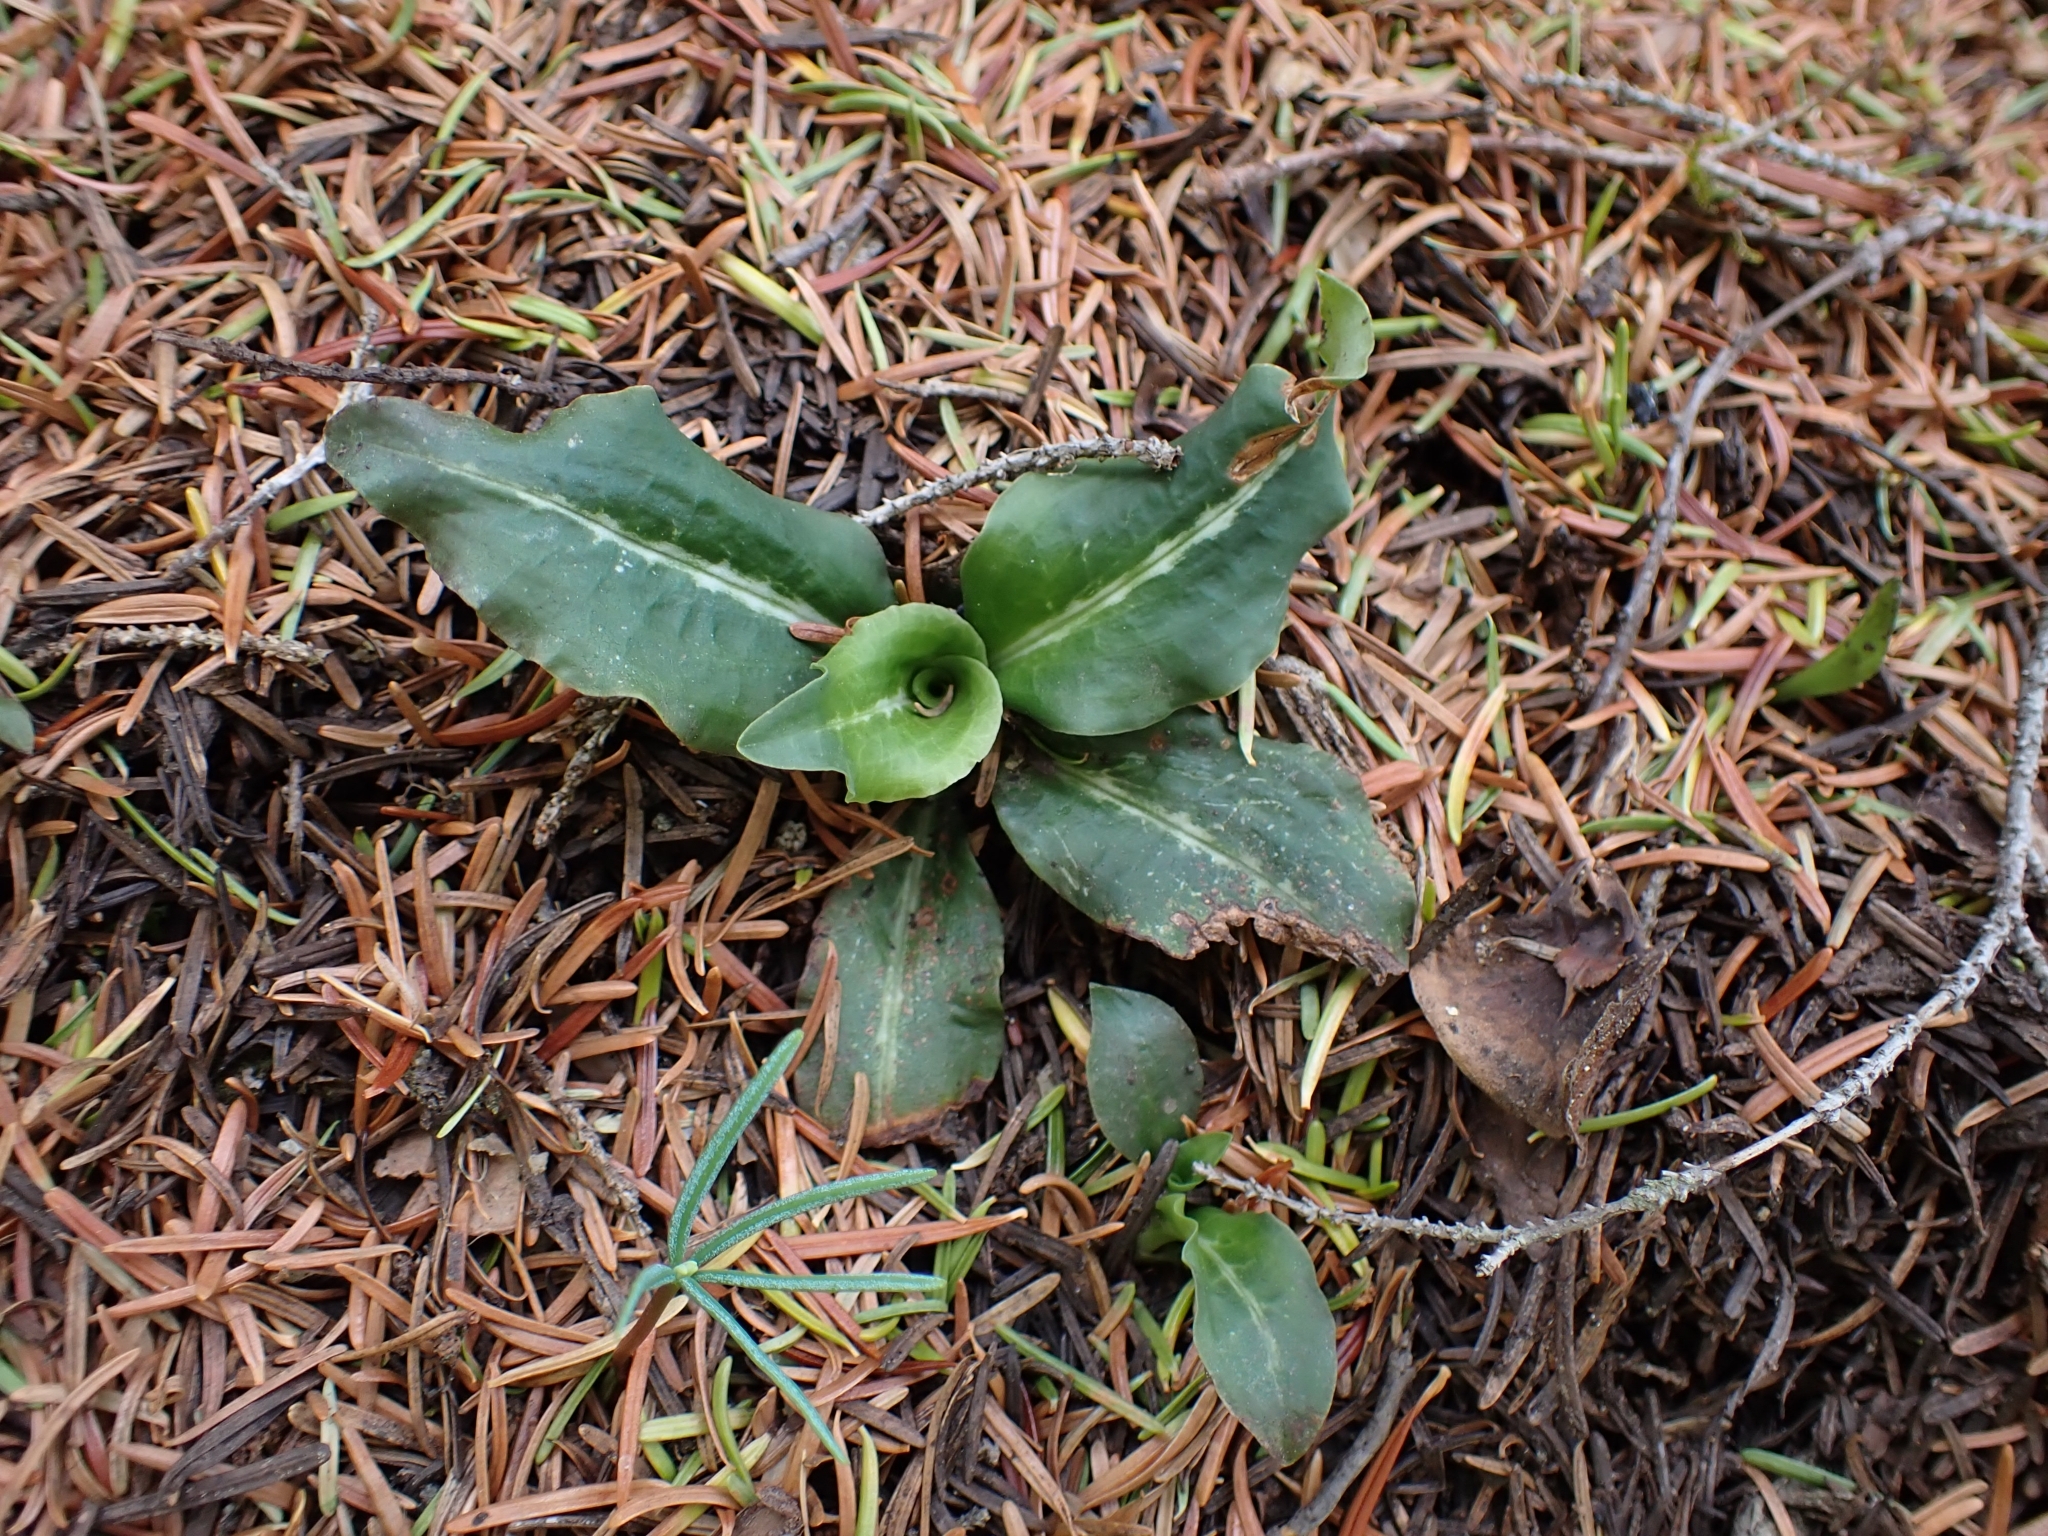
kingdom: Plantae
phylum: Tracheophyta
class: Liliopsida
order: Asparagales
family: Orchidaceae
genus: Goodyera
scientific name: Goodyera oblongifolia
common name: Giant rattlesnake-plantain
